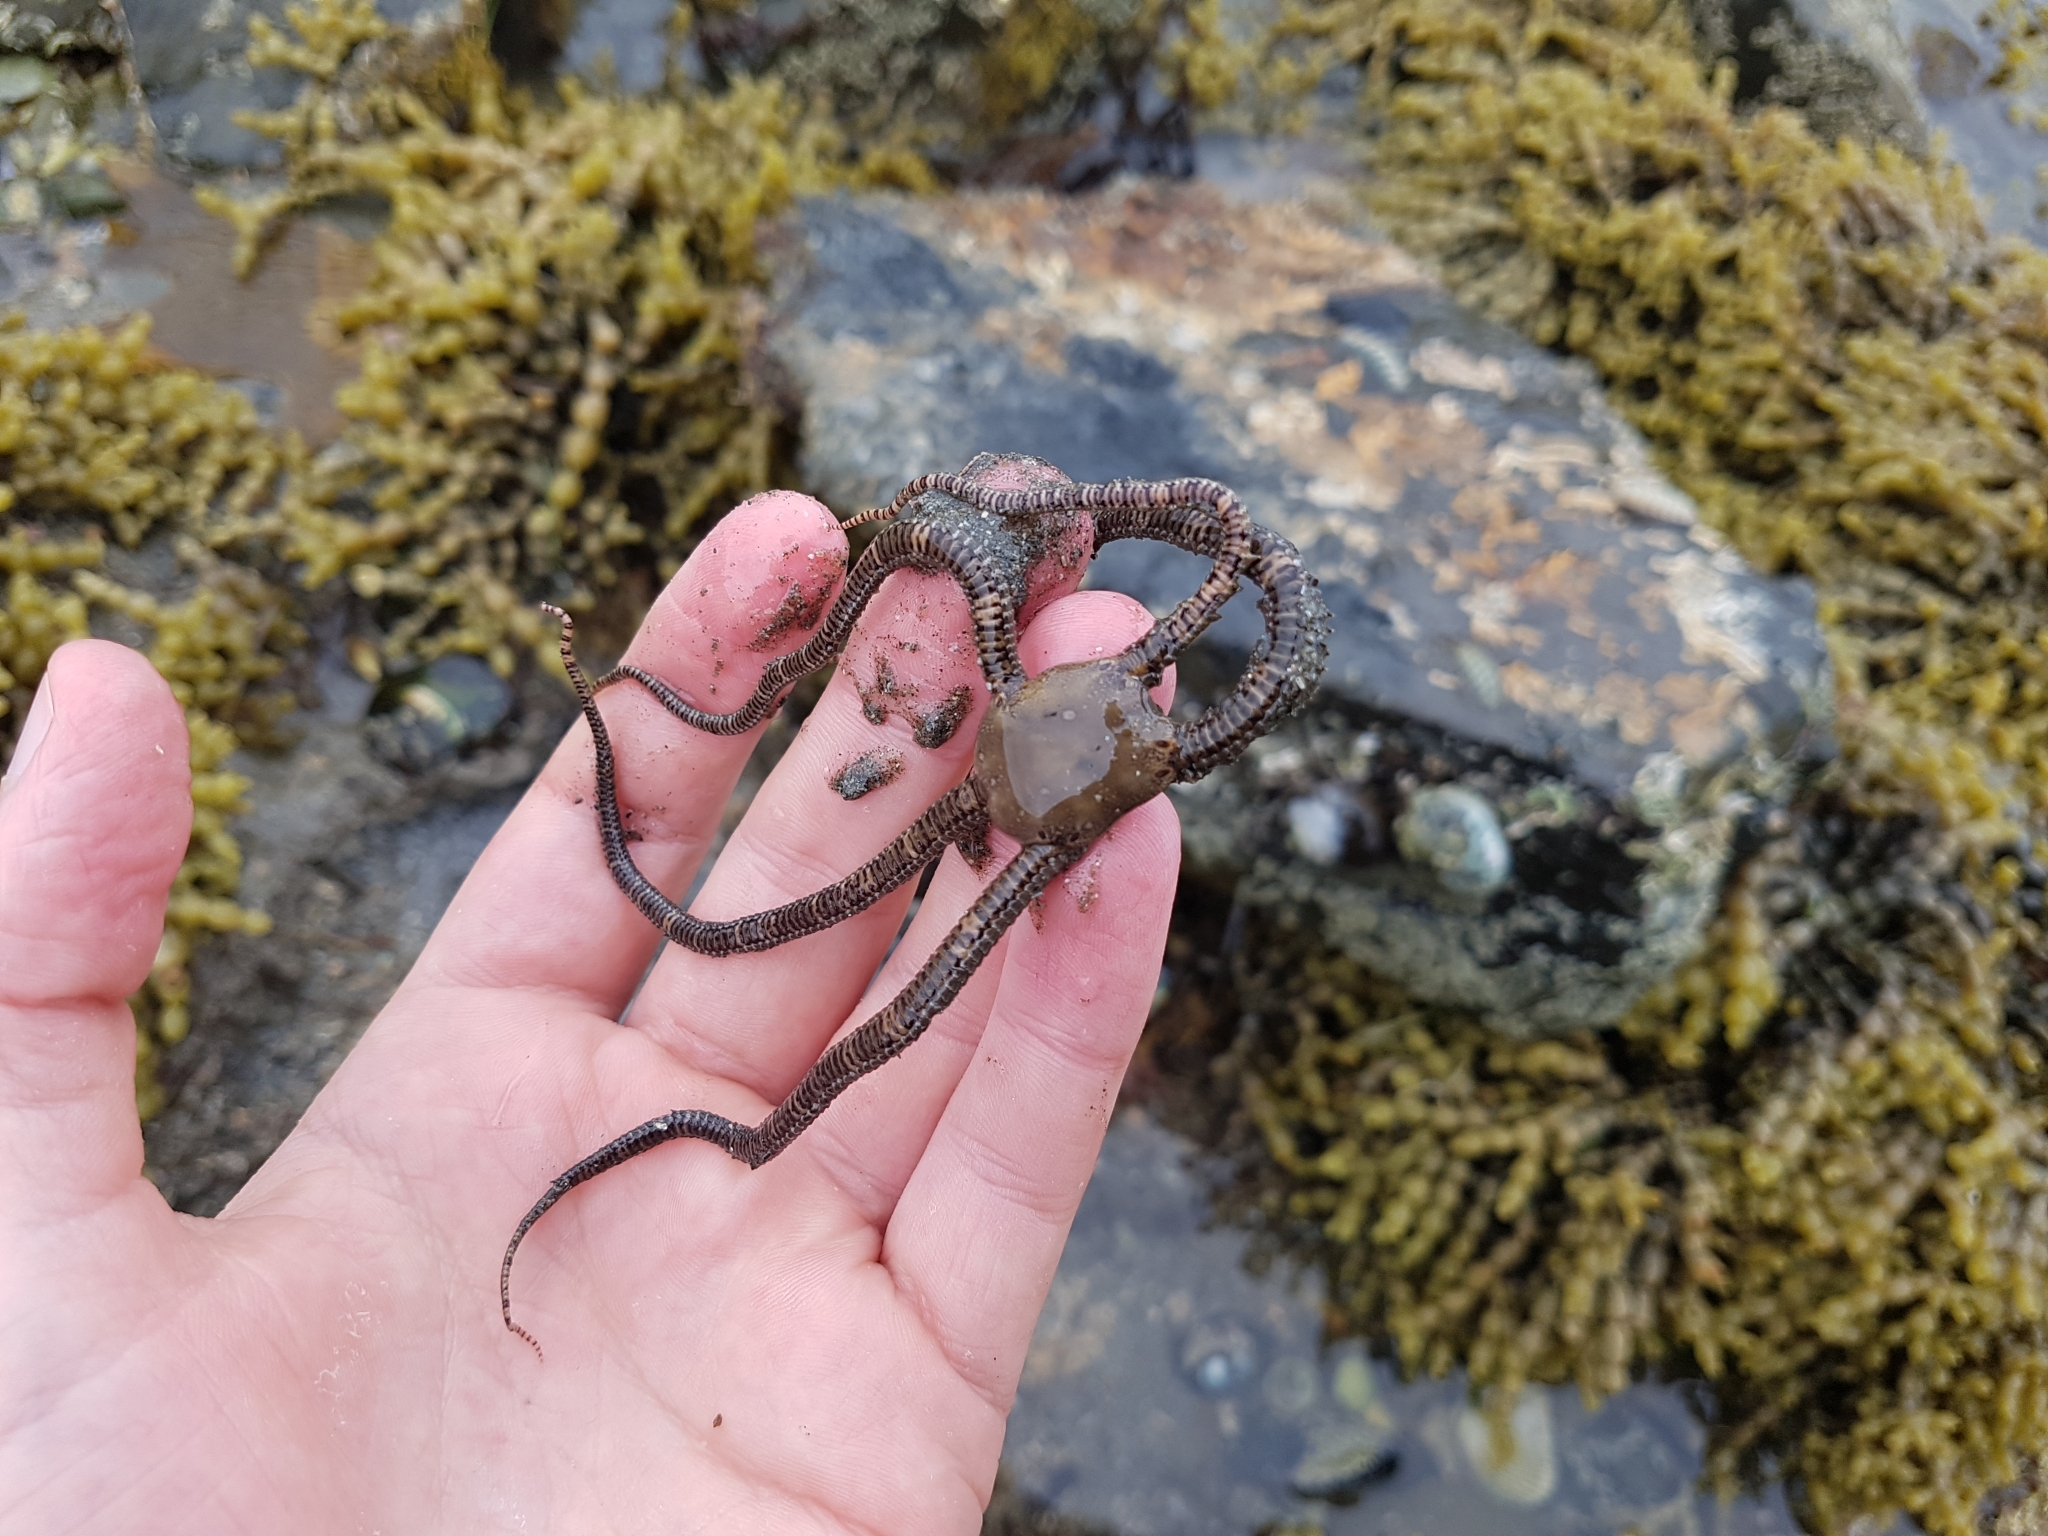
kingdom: Animalia
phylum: Echinodermata
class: Ophiuroidea
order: Amphilepidida
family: Ophionereididae
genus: Ophionereis
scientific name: Ophionereis fasciata
